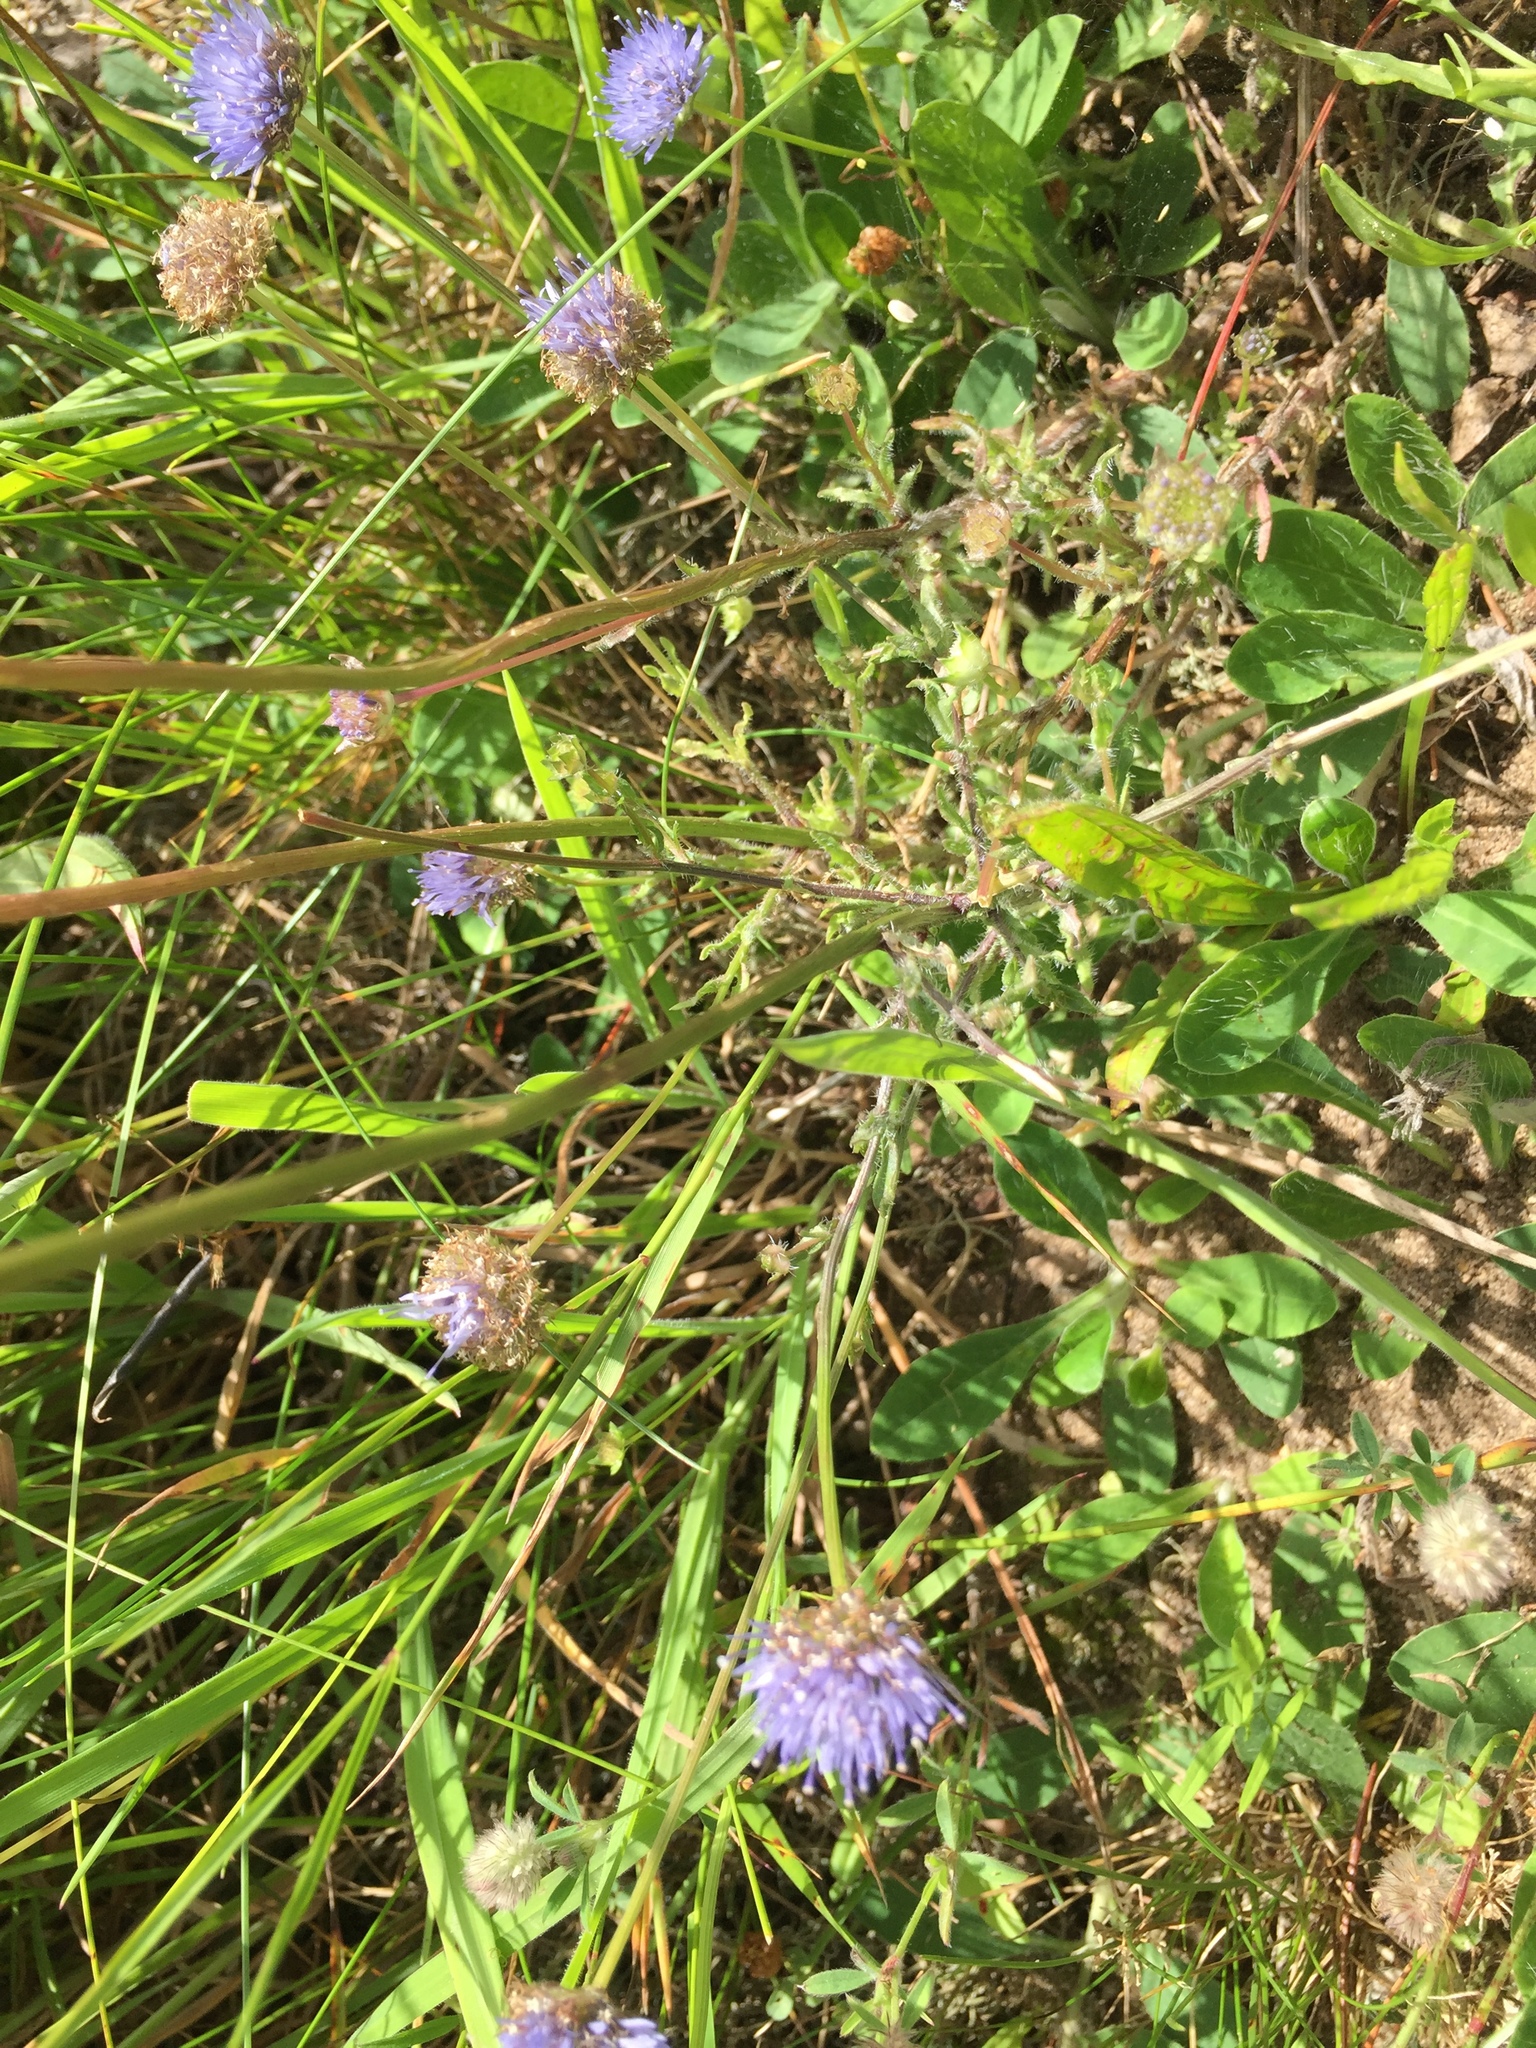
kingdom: Plantae
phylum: Tracheophyta
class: Magnoliopsida
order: Asterales
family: Campanulaceae
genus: Jasione
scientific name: Jasione montana
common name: Sheep's-bit
